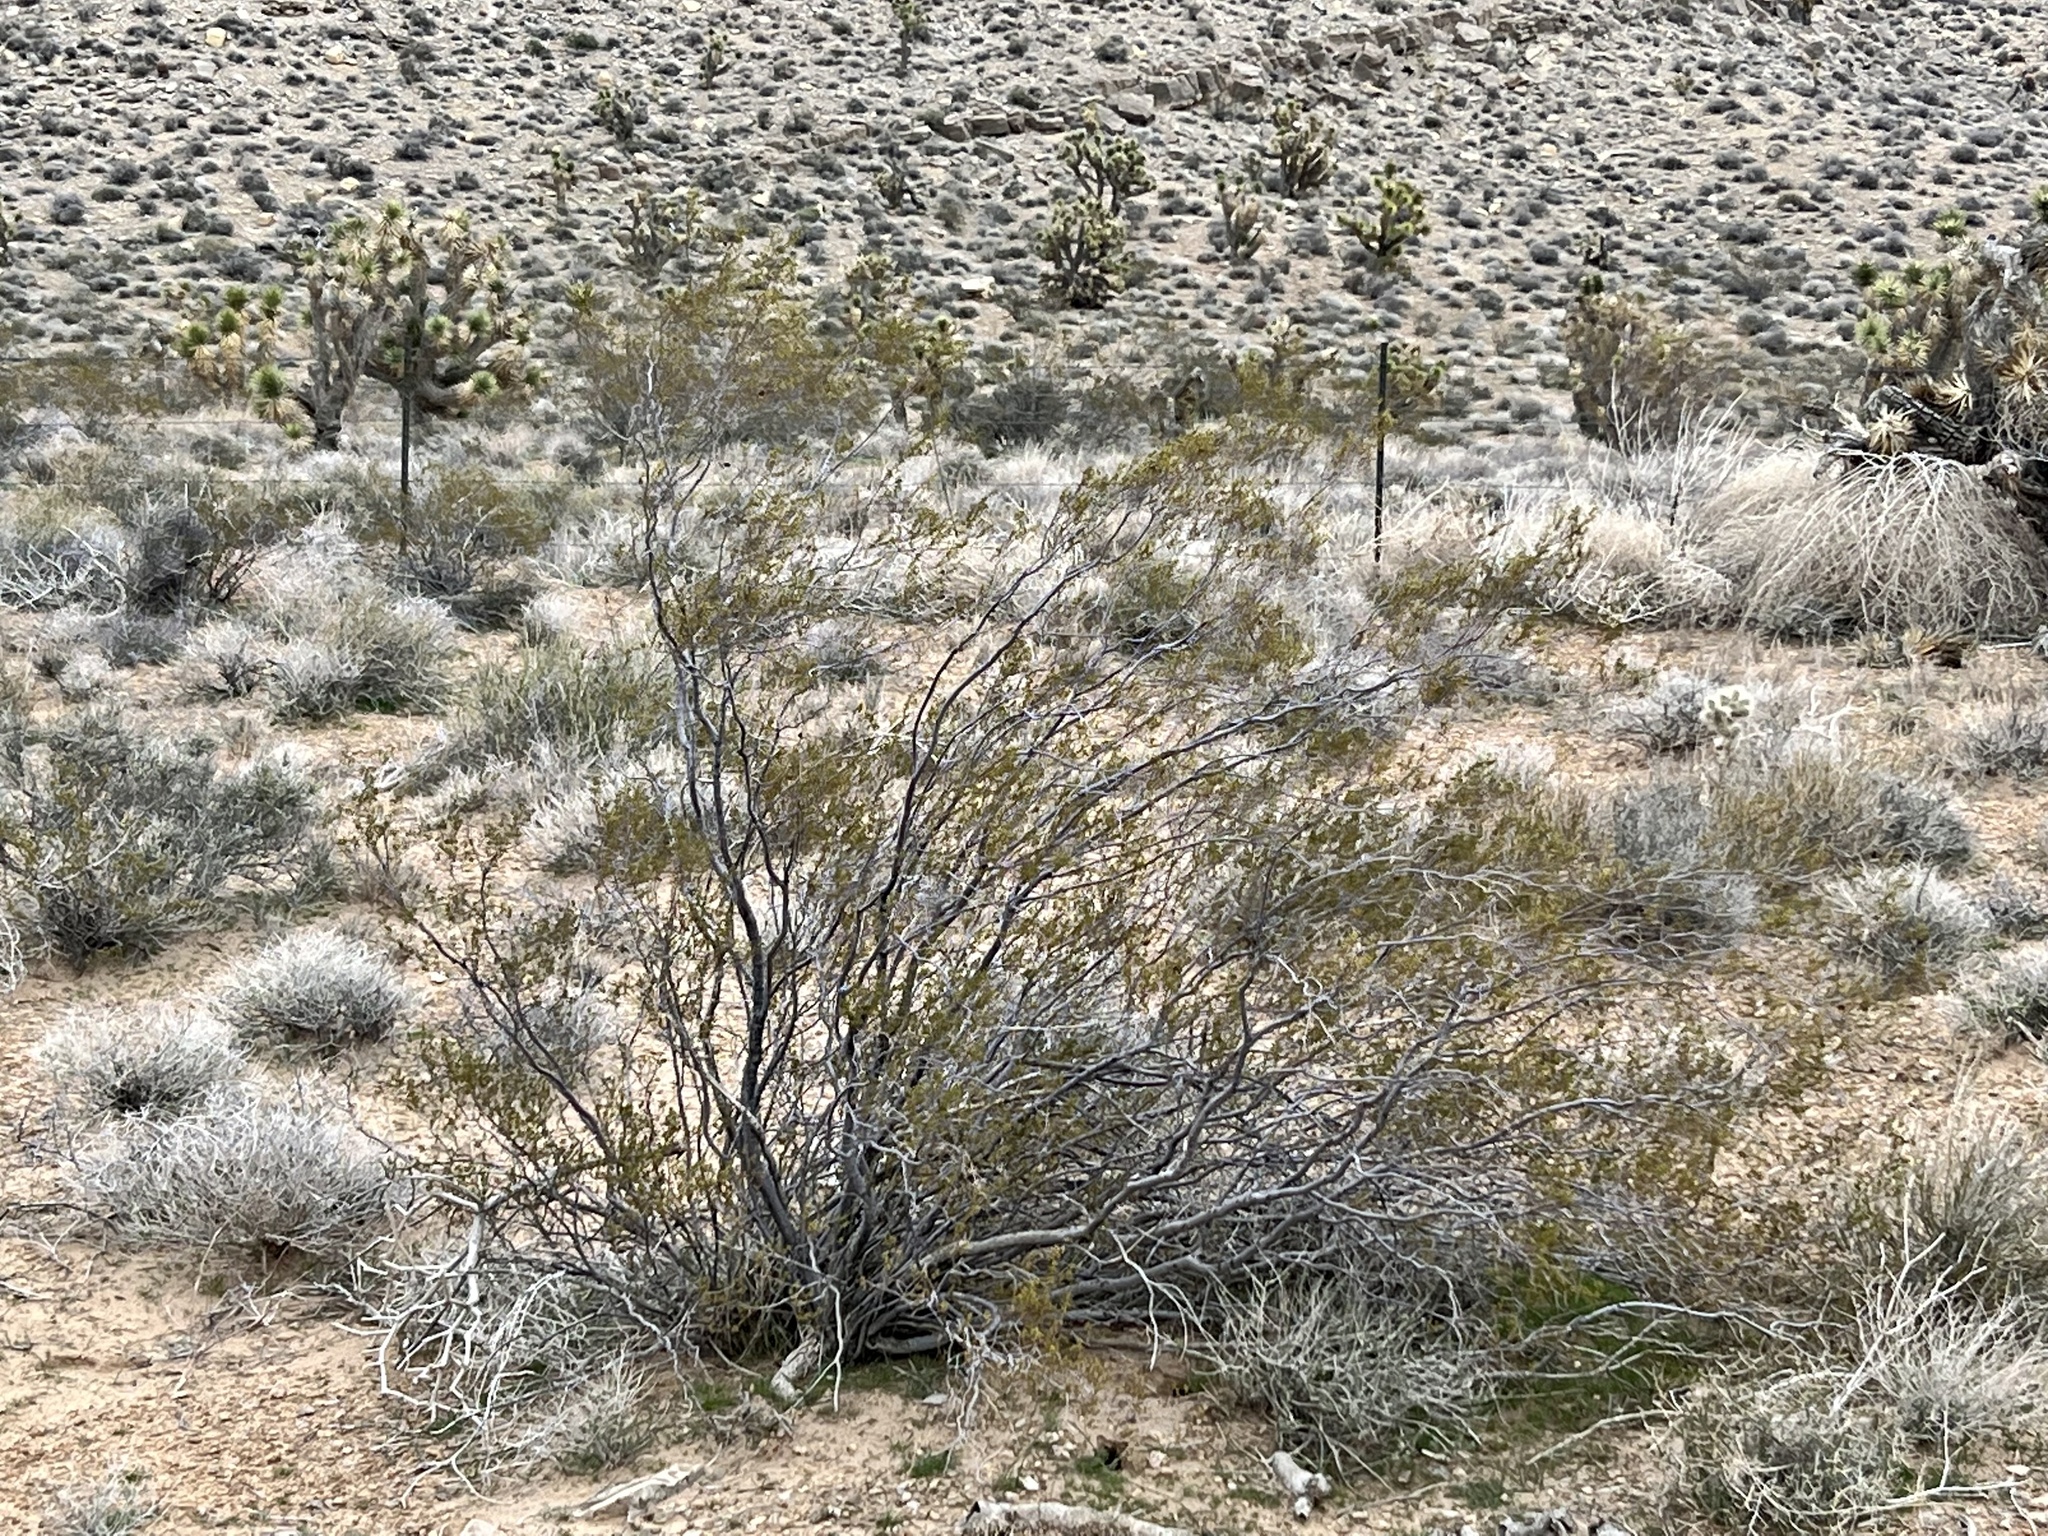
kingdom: Plantae
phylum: Tracheophyta
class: Magnoliopsida
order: Zygophyllales
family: Zygophyllaceae
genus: Larrea
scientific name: Larrea tridentata
